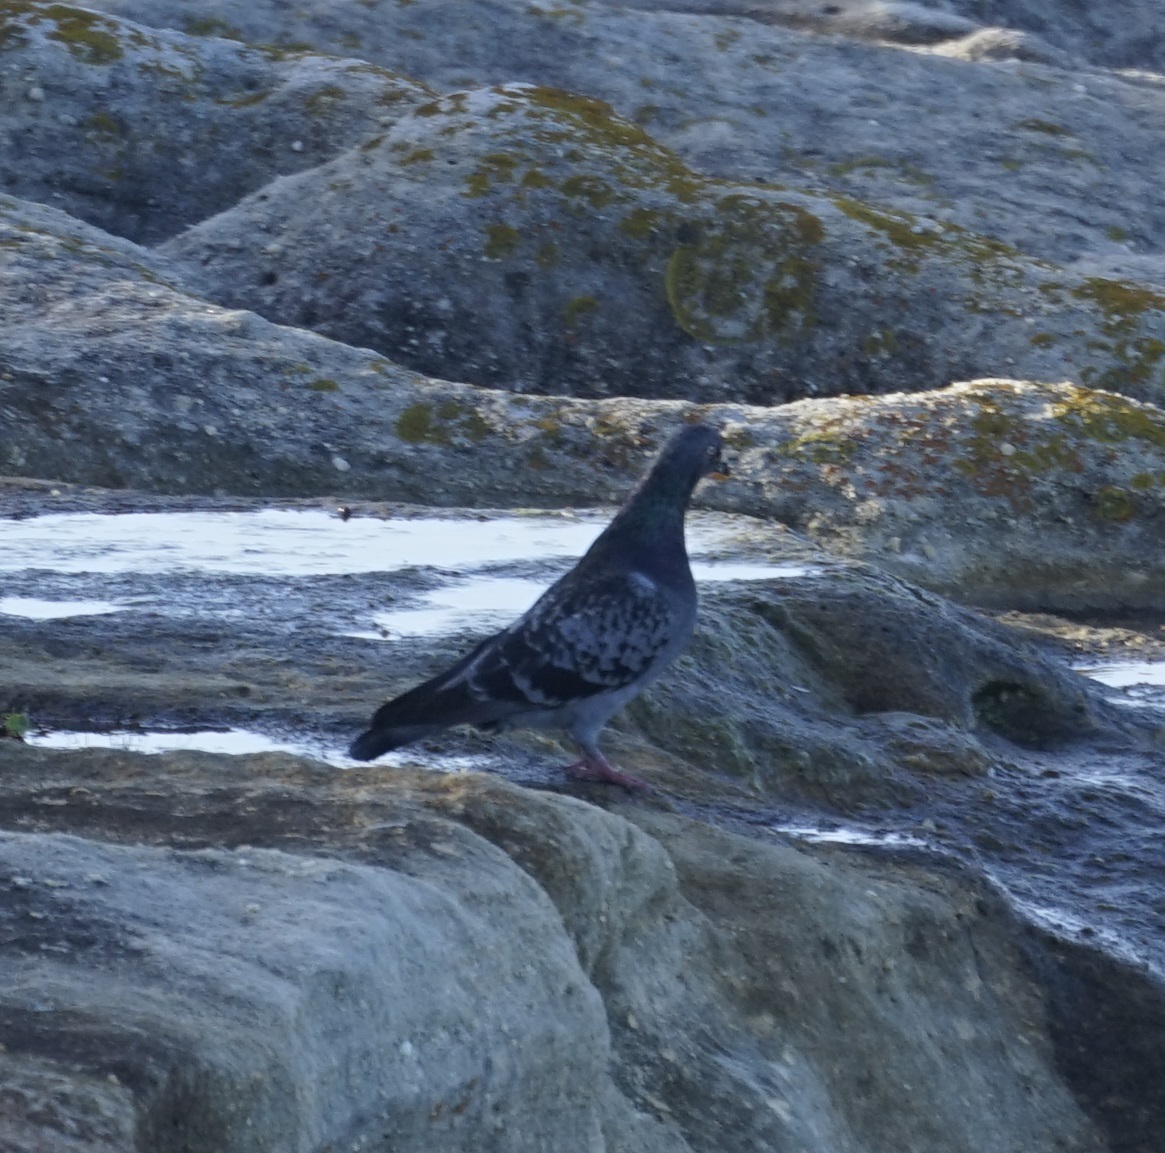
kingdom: Animalia
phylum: Chordata
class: Aves
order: Columbiformes
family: Columbidae
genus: Columba
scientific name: Columba livia
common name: Rock pigeon
